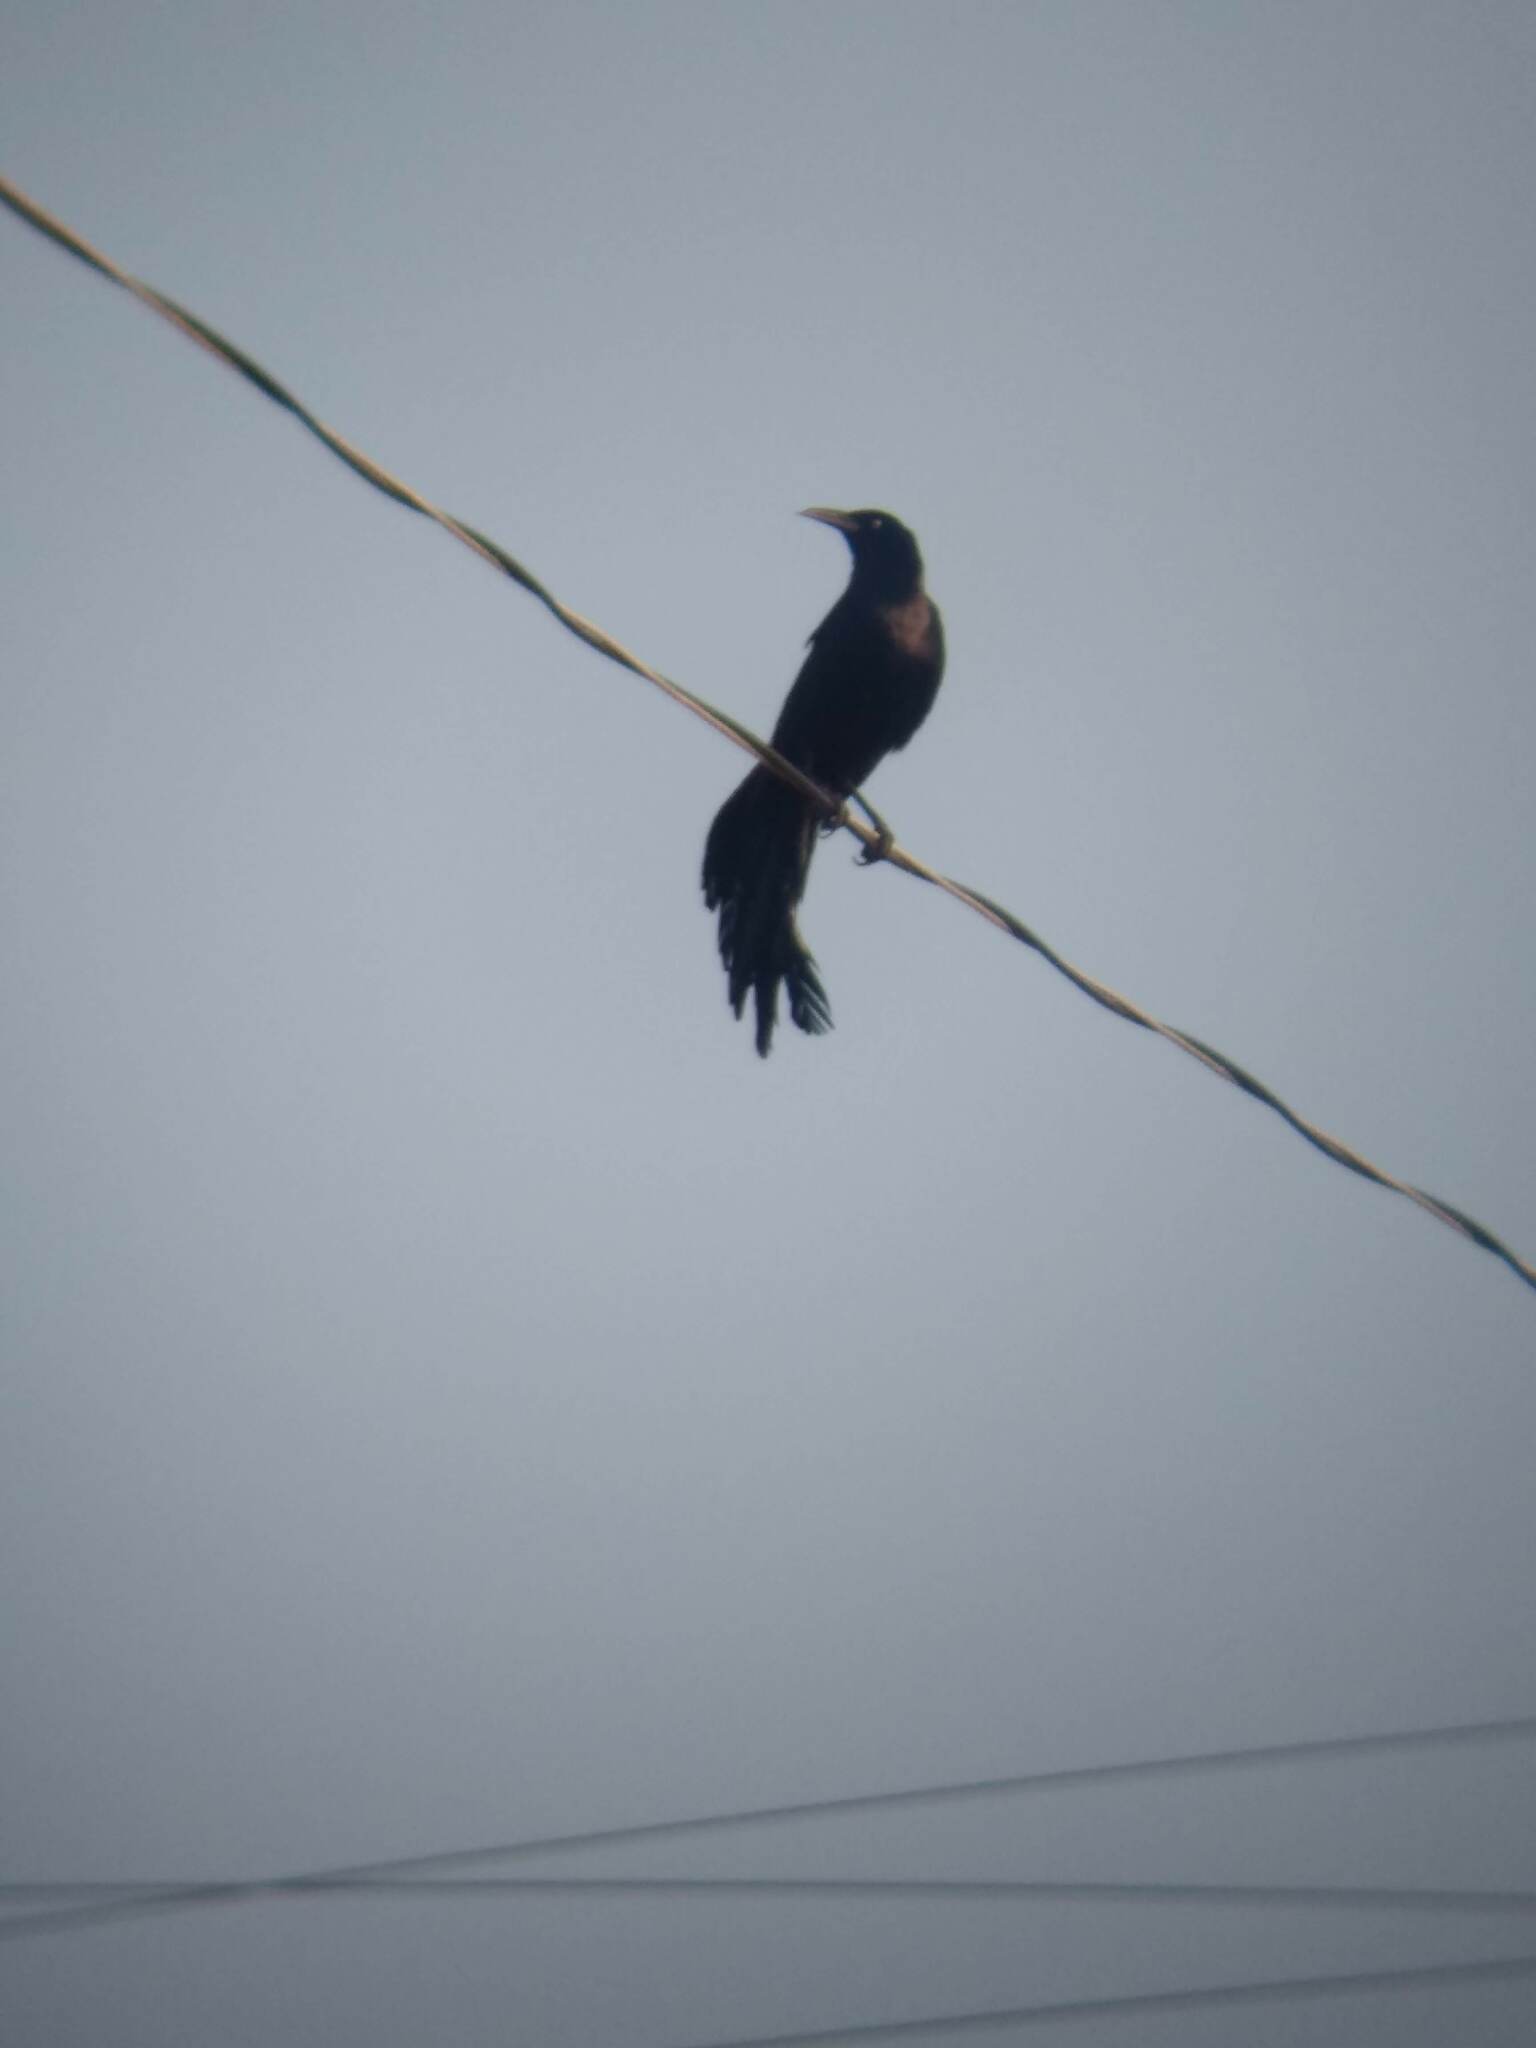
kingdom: Animalia
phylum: Chordata
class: Aves
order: Passeriformes
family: Icteridae
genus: Quiscalus
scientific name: Quiscalus mexicanus
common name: Great-tailed grackle
